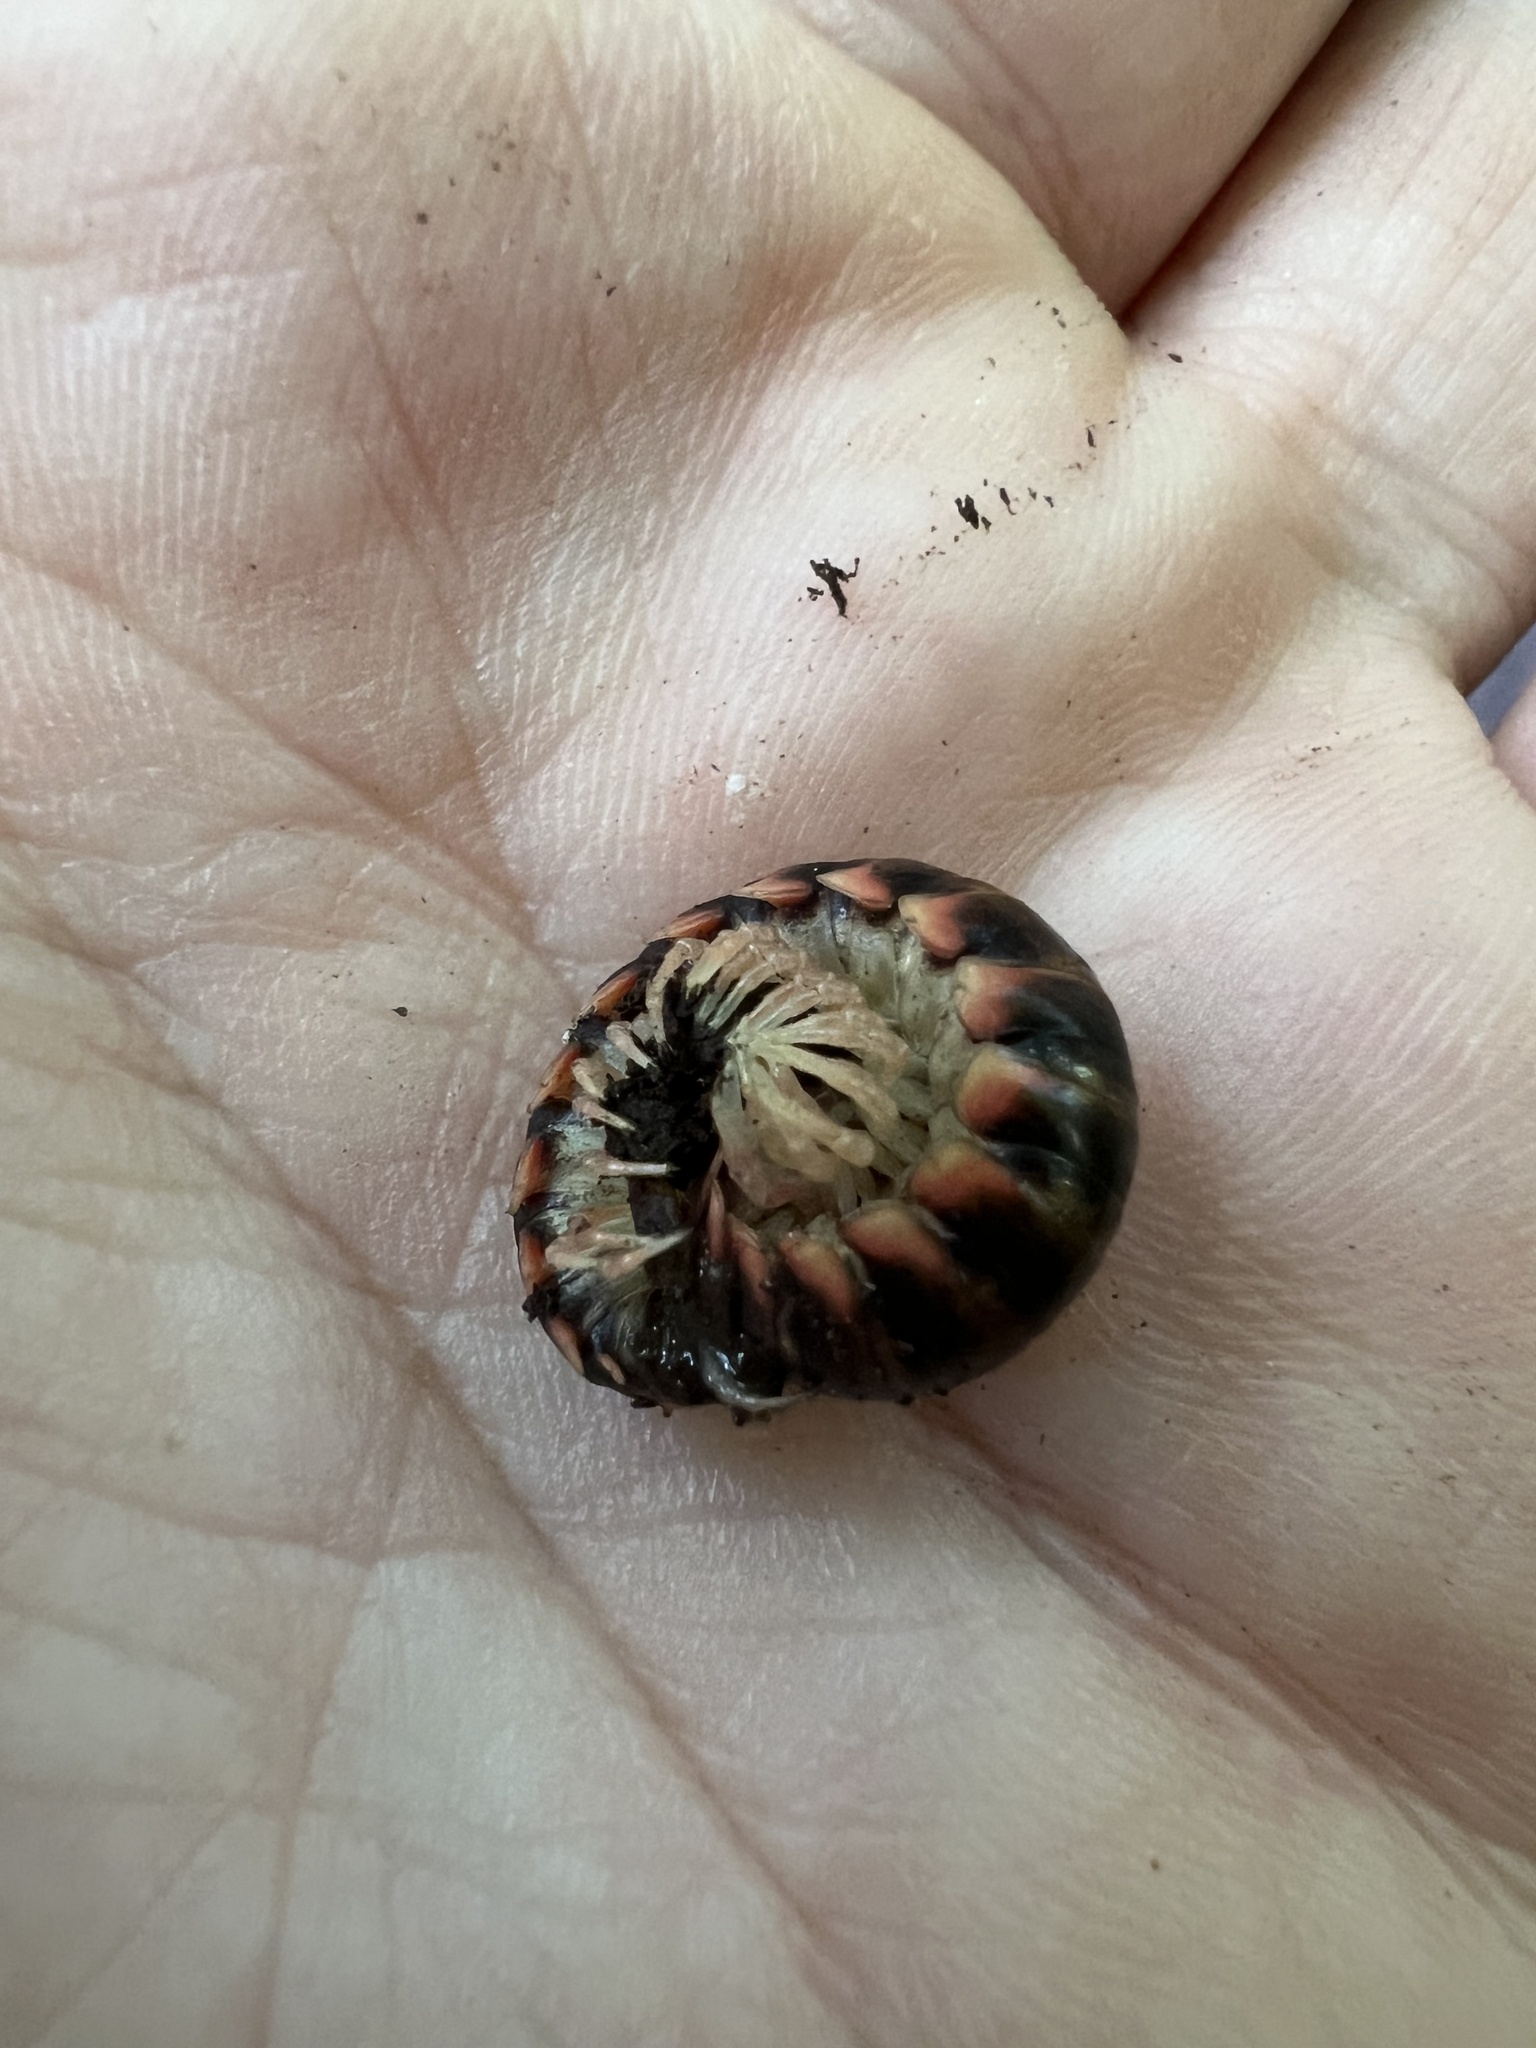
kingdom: Animalia
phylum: Arthropoda
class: Diplopoda
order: Polydesmida
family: Xystodesmidae
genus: Erdelyia
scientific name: Erdelyia saucra
